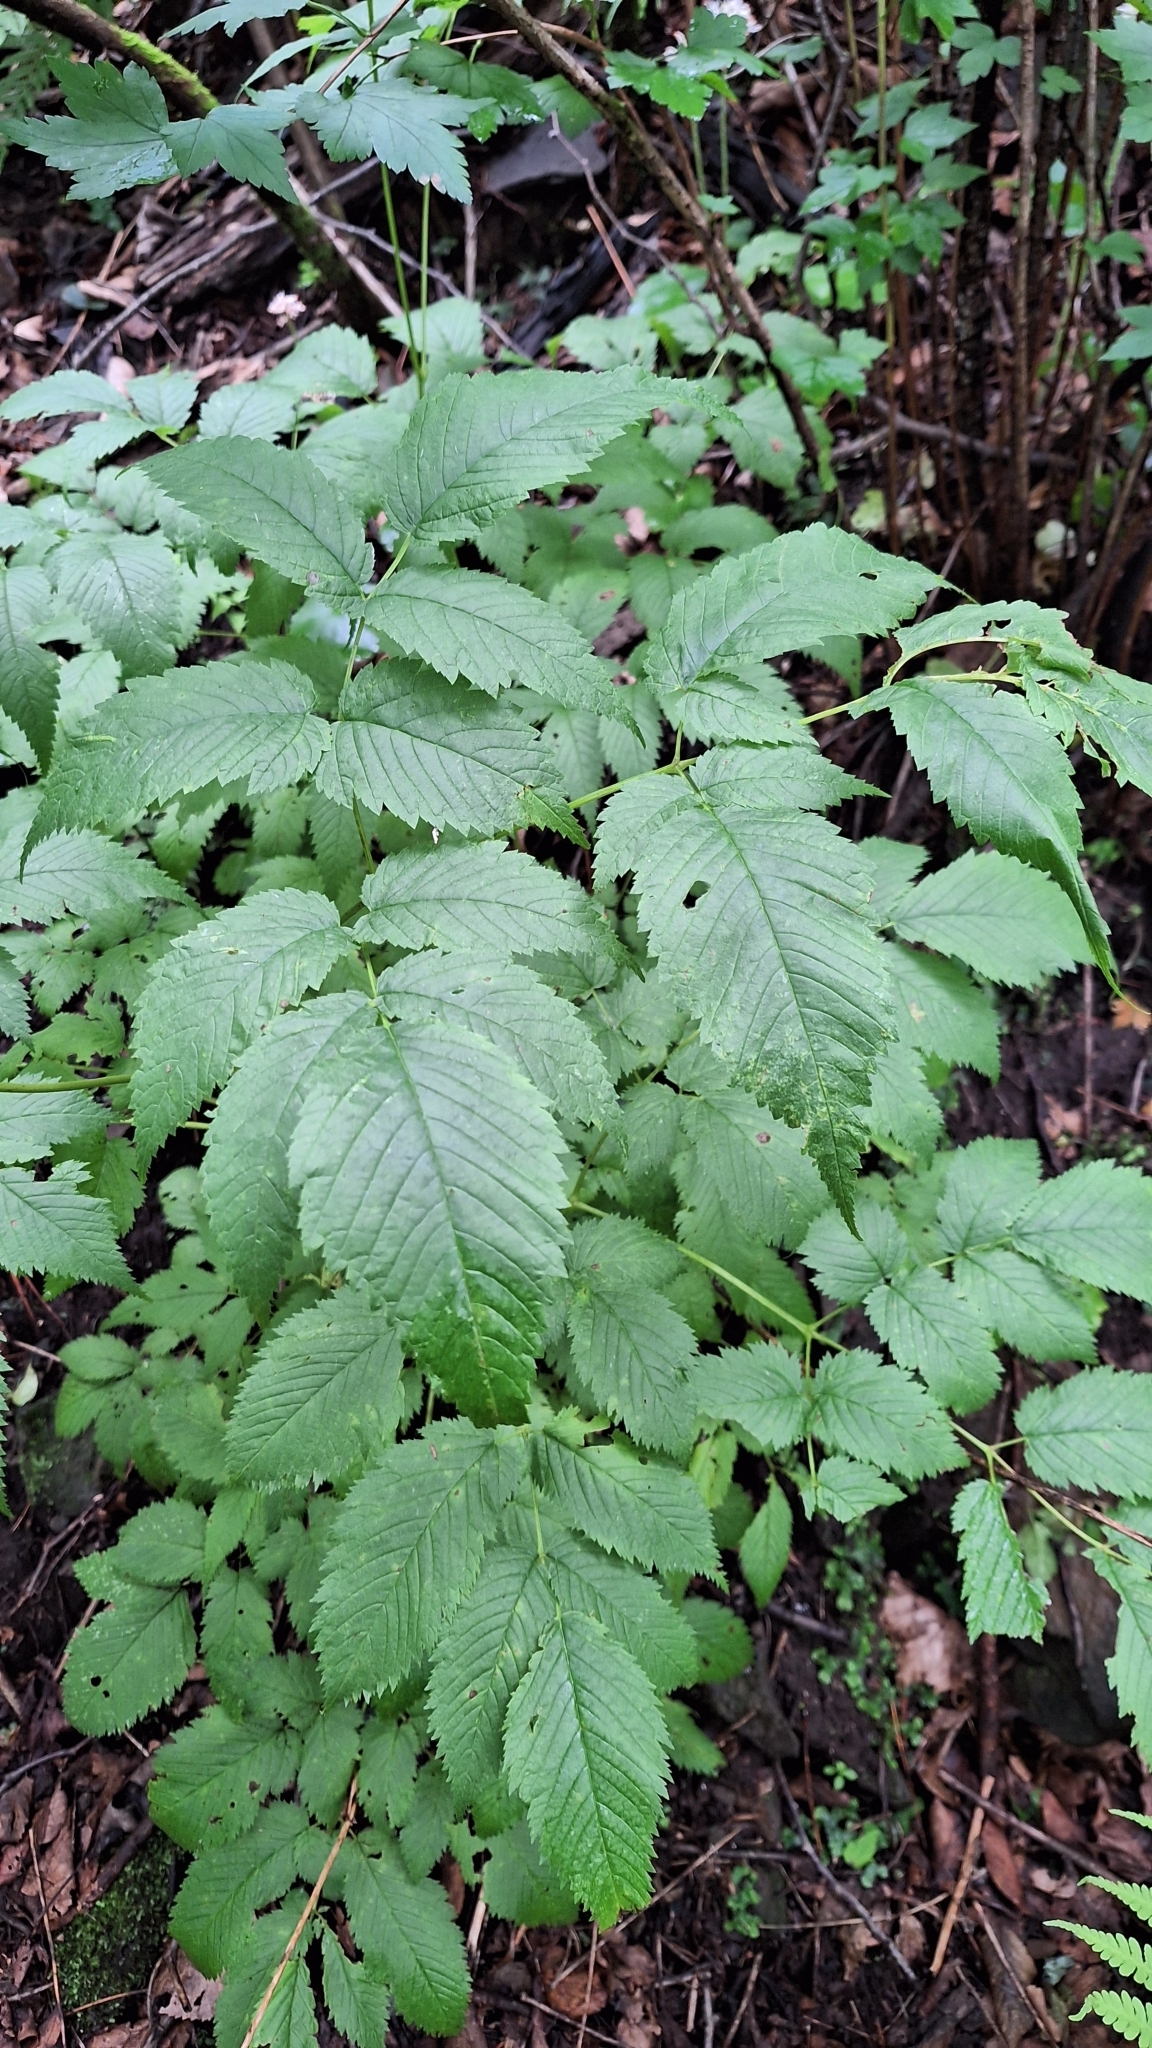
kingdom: Plantae
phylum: Tracheophyta
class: Magnoliopsida
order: Rosales
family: Rosaceae
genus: Aruncus
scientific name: Aruncus dioicus
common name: Buck's-beard
